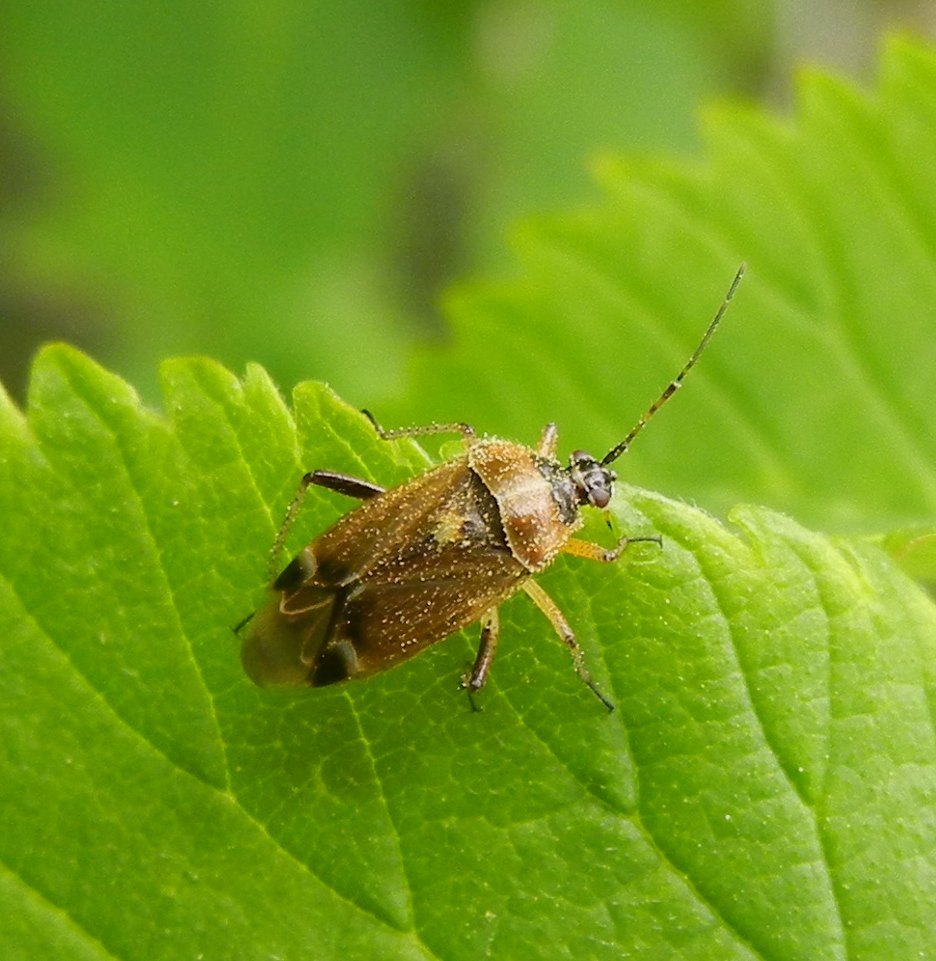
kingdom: Animalia
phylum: Arthropoda
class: Insecta
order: Hemiptera
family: Miridae
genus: Harpocera
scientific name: Harpocera thoracica
